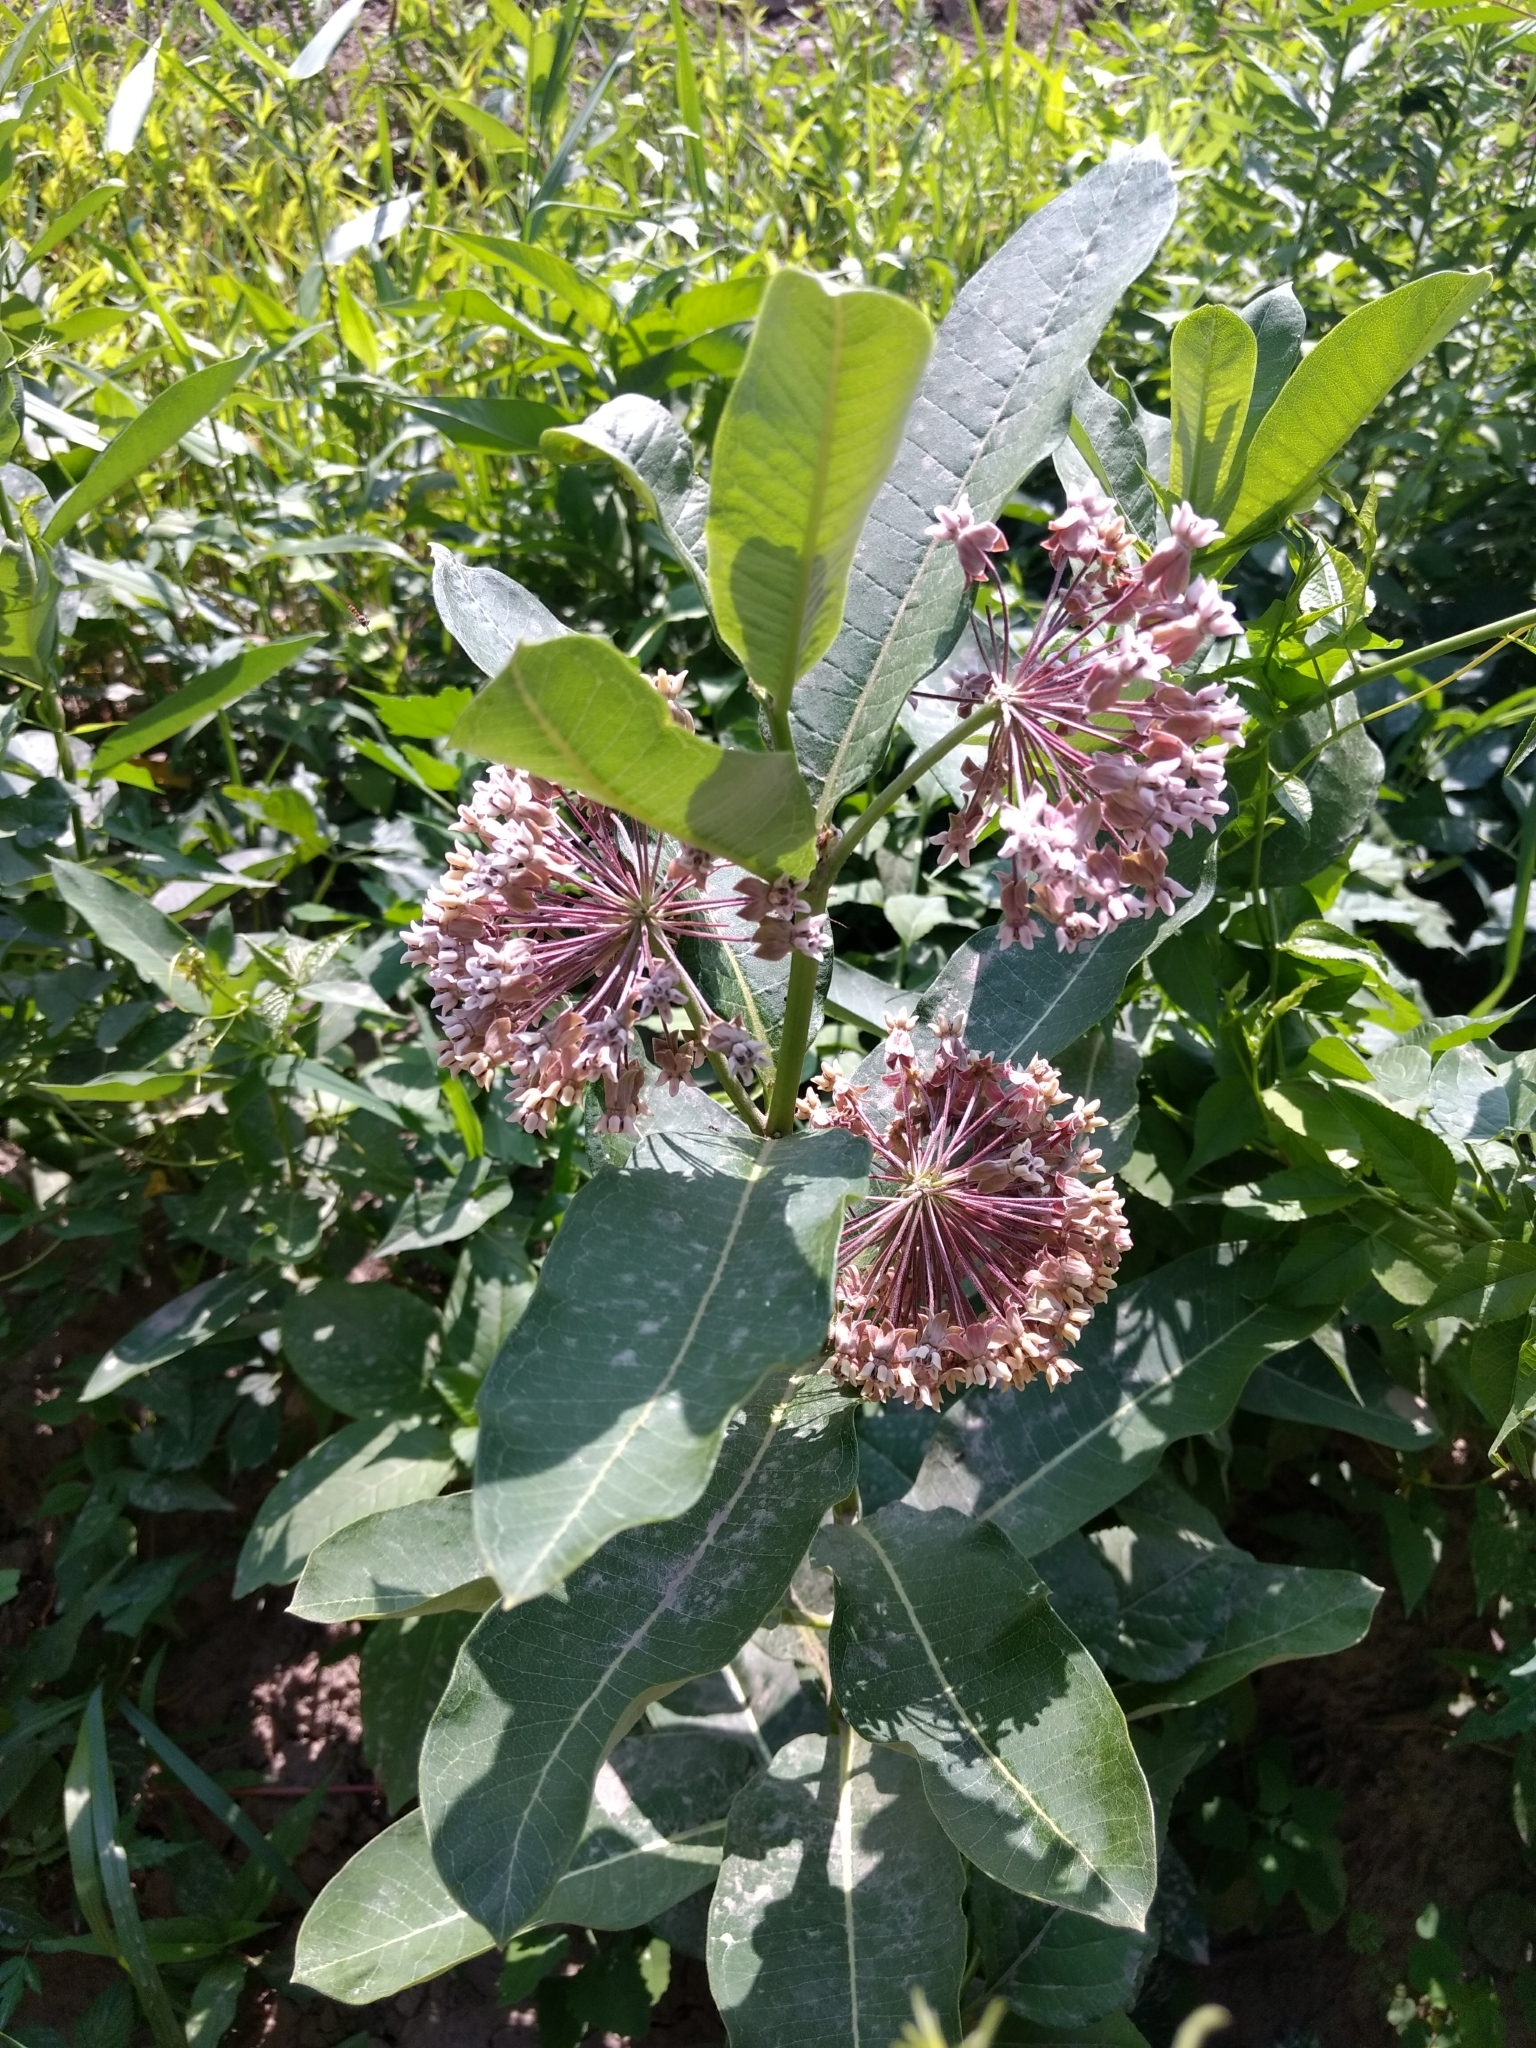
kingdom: Plantae
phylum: Tracheophyta
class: Magnoliopsida
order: Gentianales
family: Apocynaceae
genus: Asclepias
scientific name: Asclepias syriaca
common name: Common milkweed
